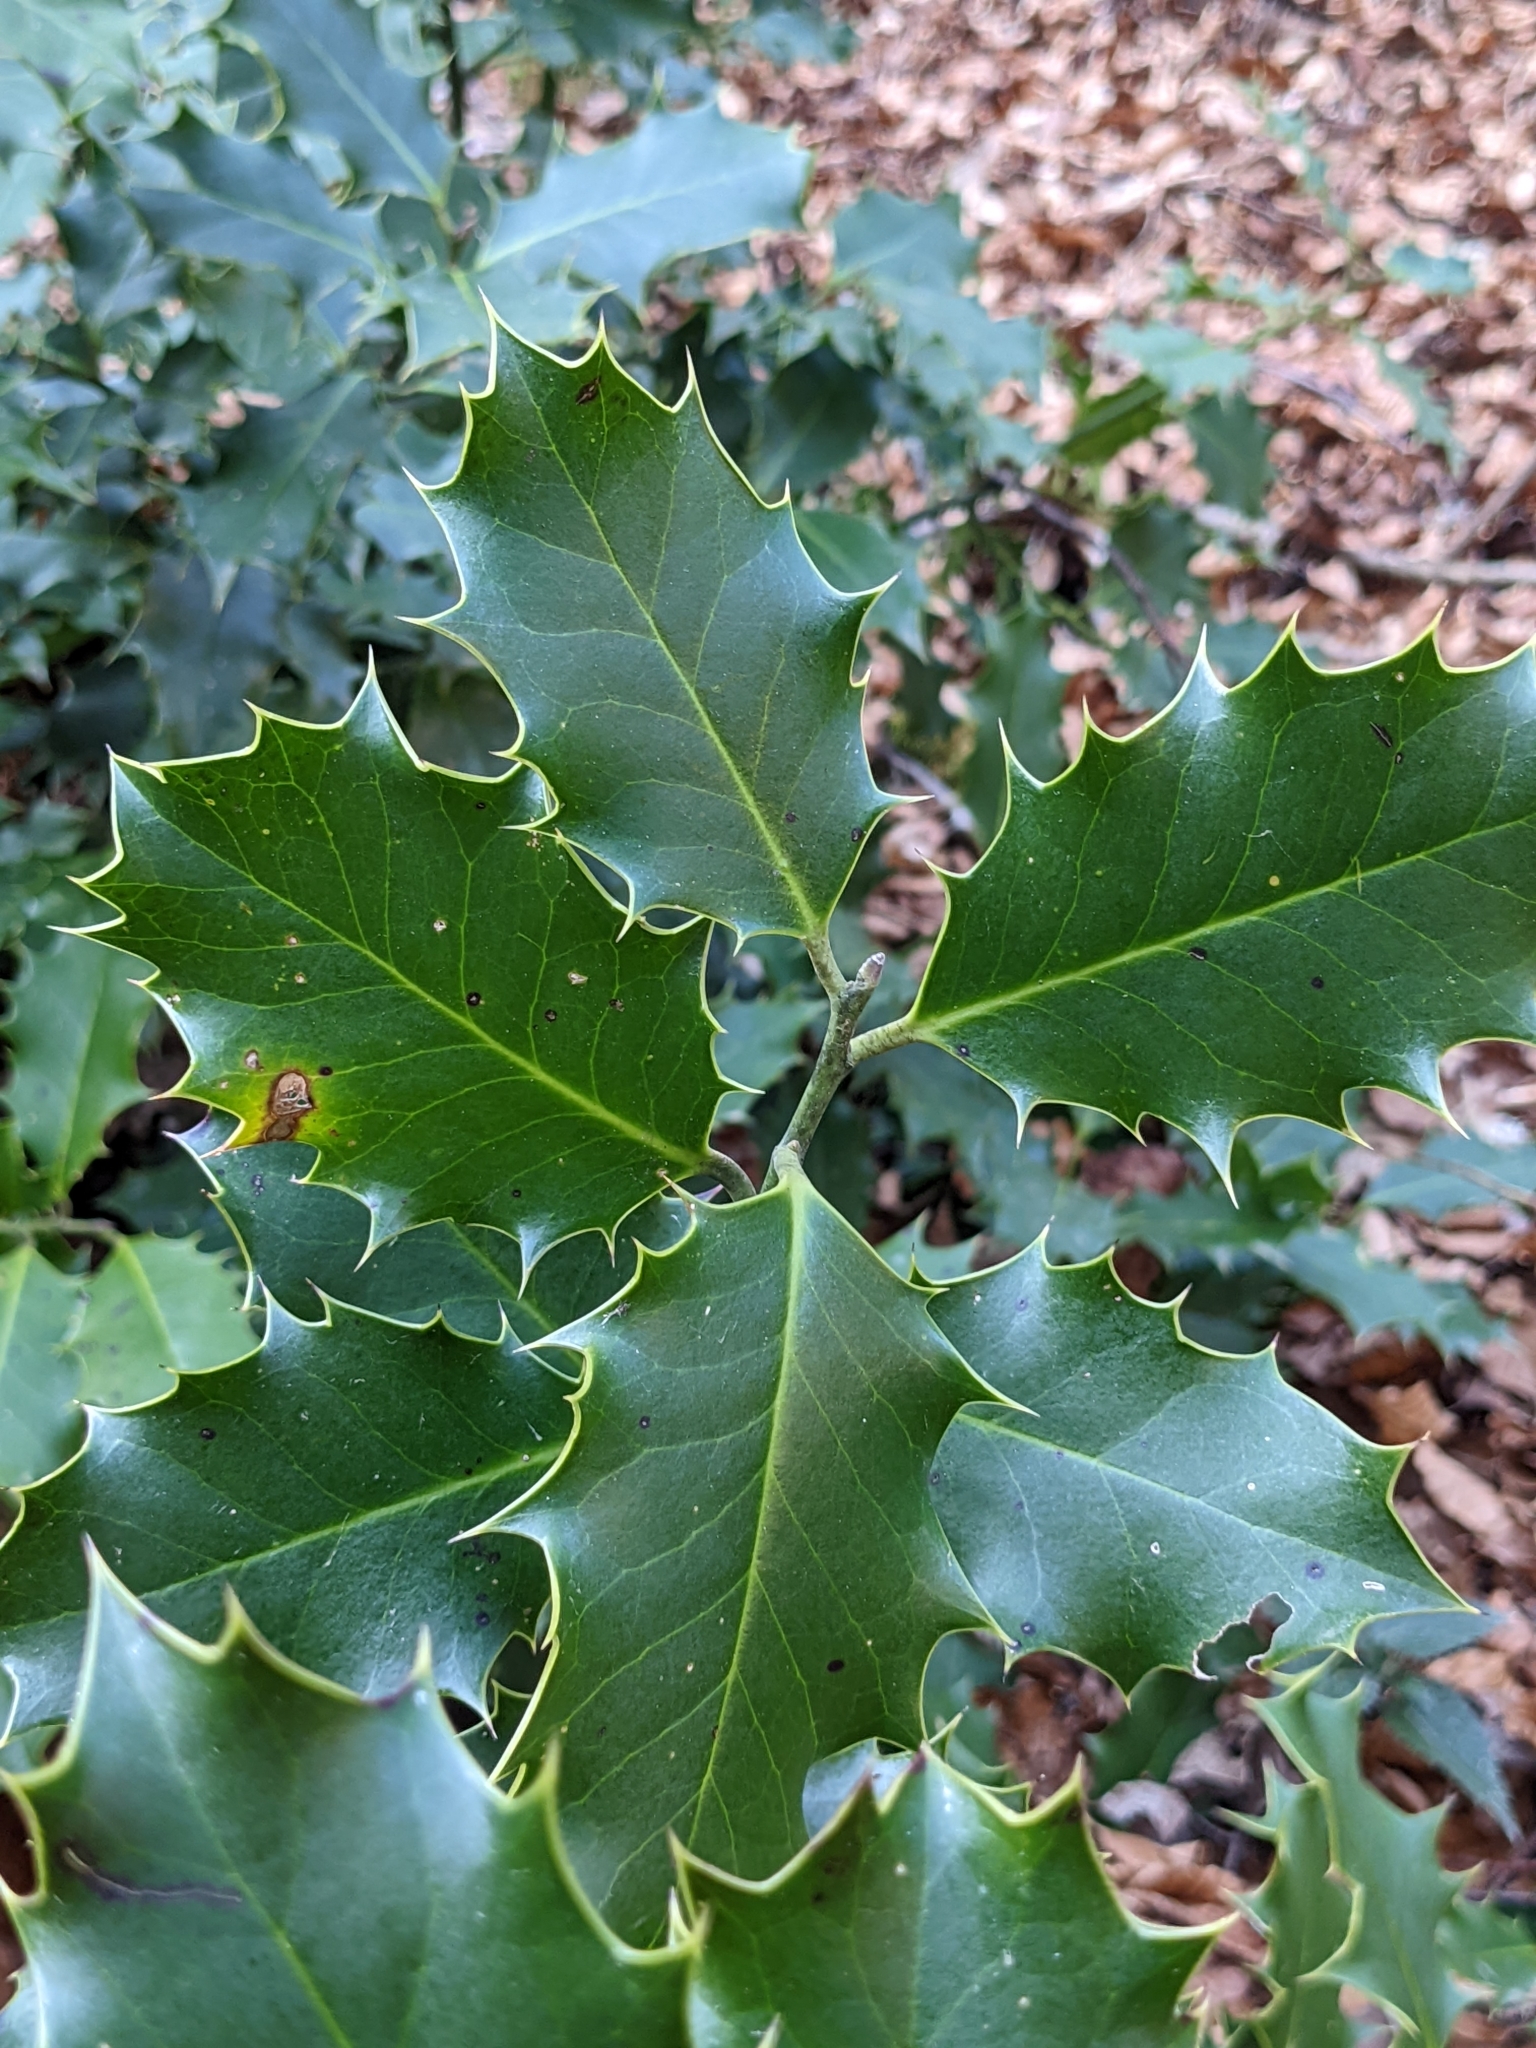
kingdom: Plantae
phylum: Tracheophyta
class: Magnoliopsida
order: Aquifoliales
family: Aquifoliaceae
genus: Ilex
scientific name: Ilex aquifolium
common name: English holly
